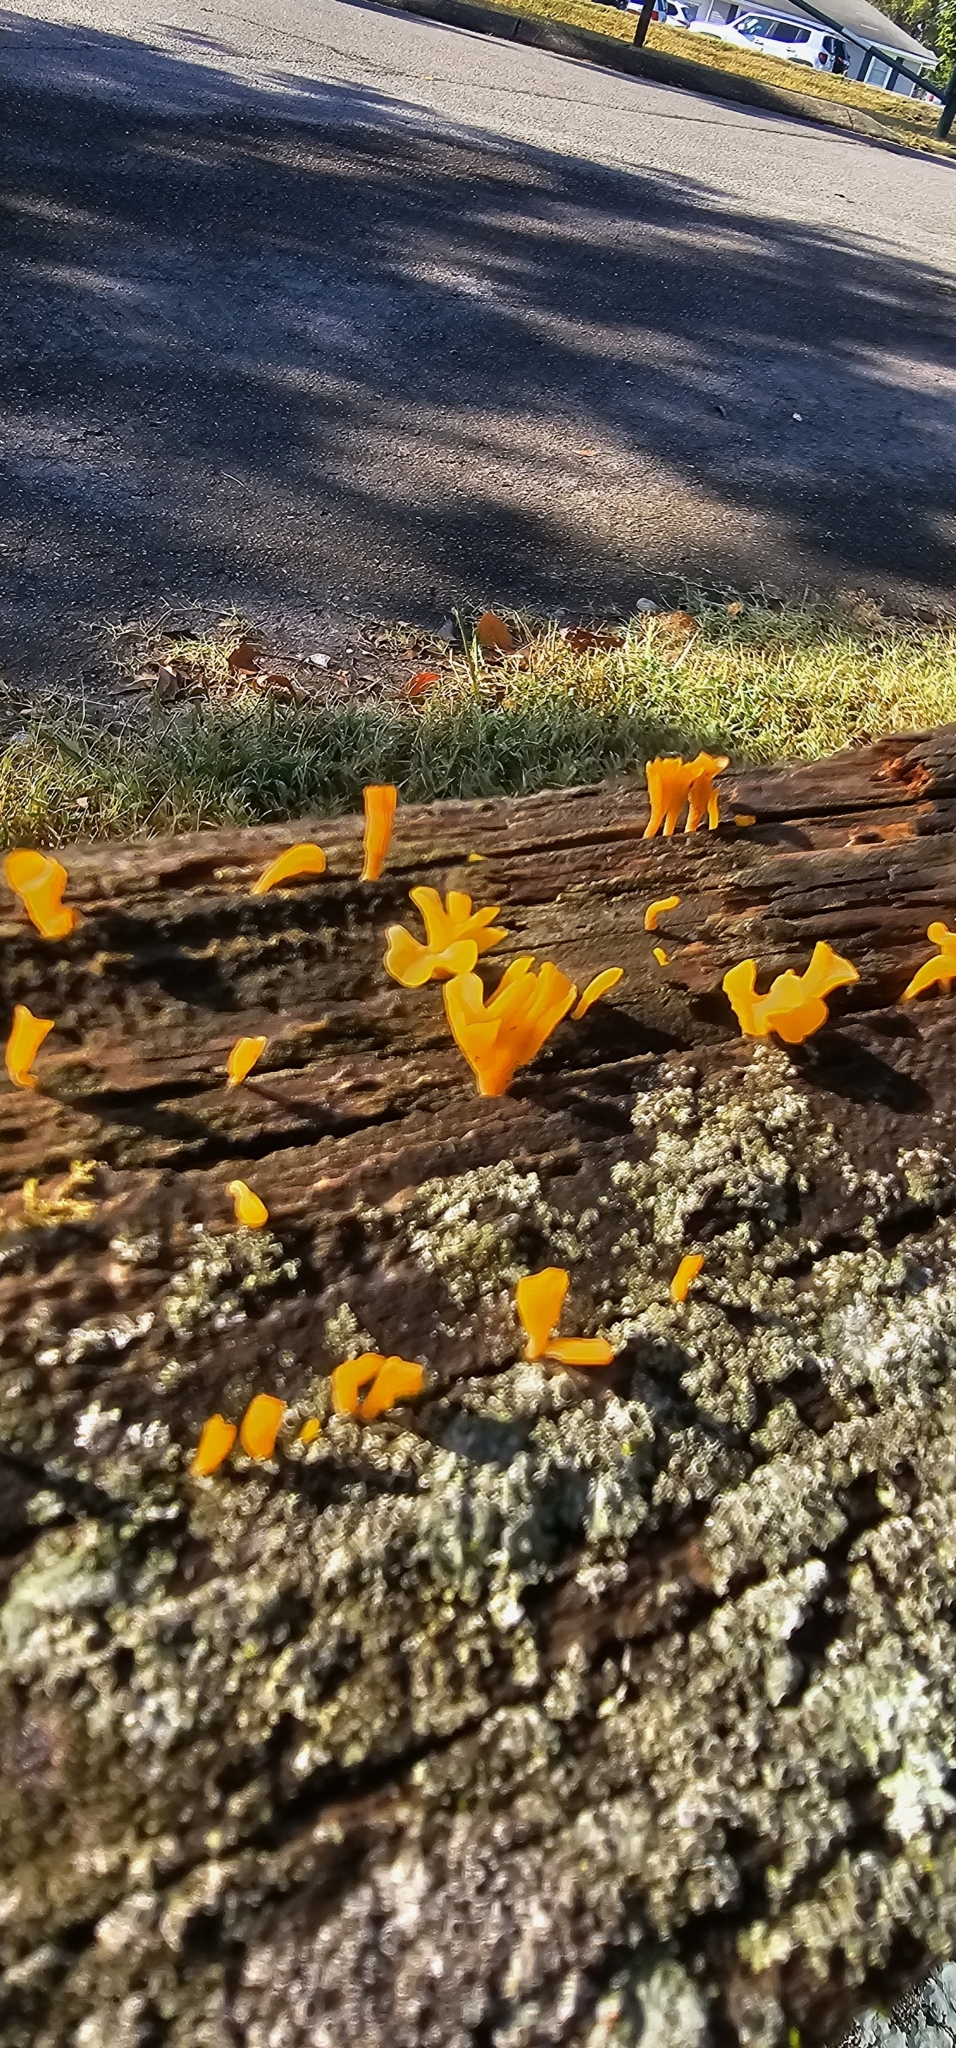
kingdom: Fungi
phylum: Basidiomycota
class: Dacrymycetes
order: Dacrymycetales
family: Dacrymycetaceae
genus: Dacrymyces
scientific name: Dacrymyces spathularius
